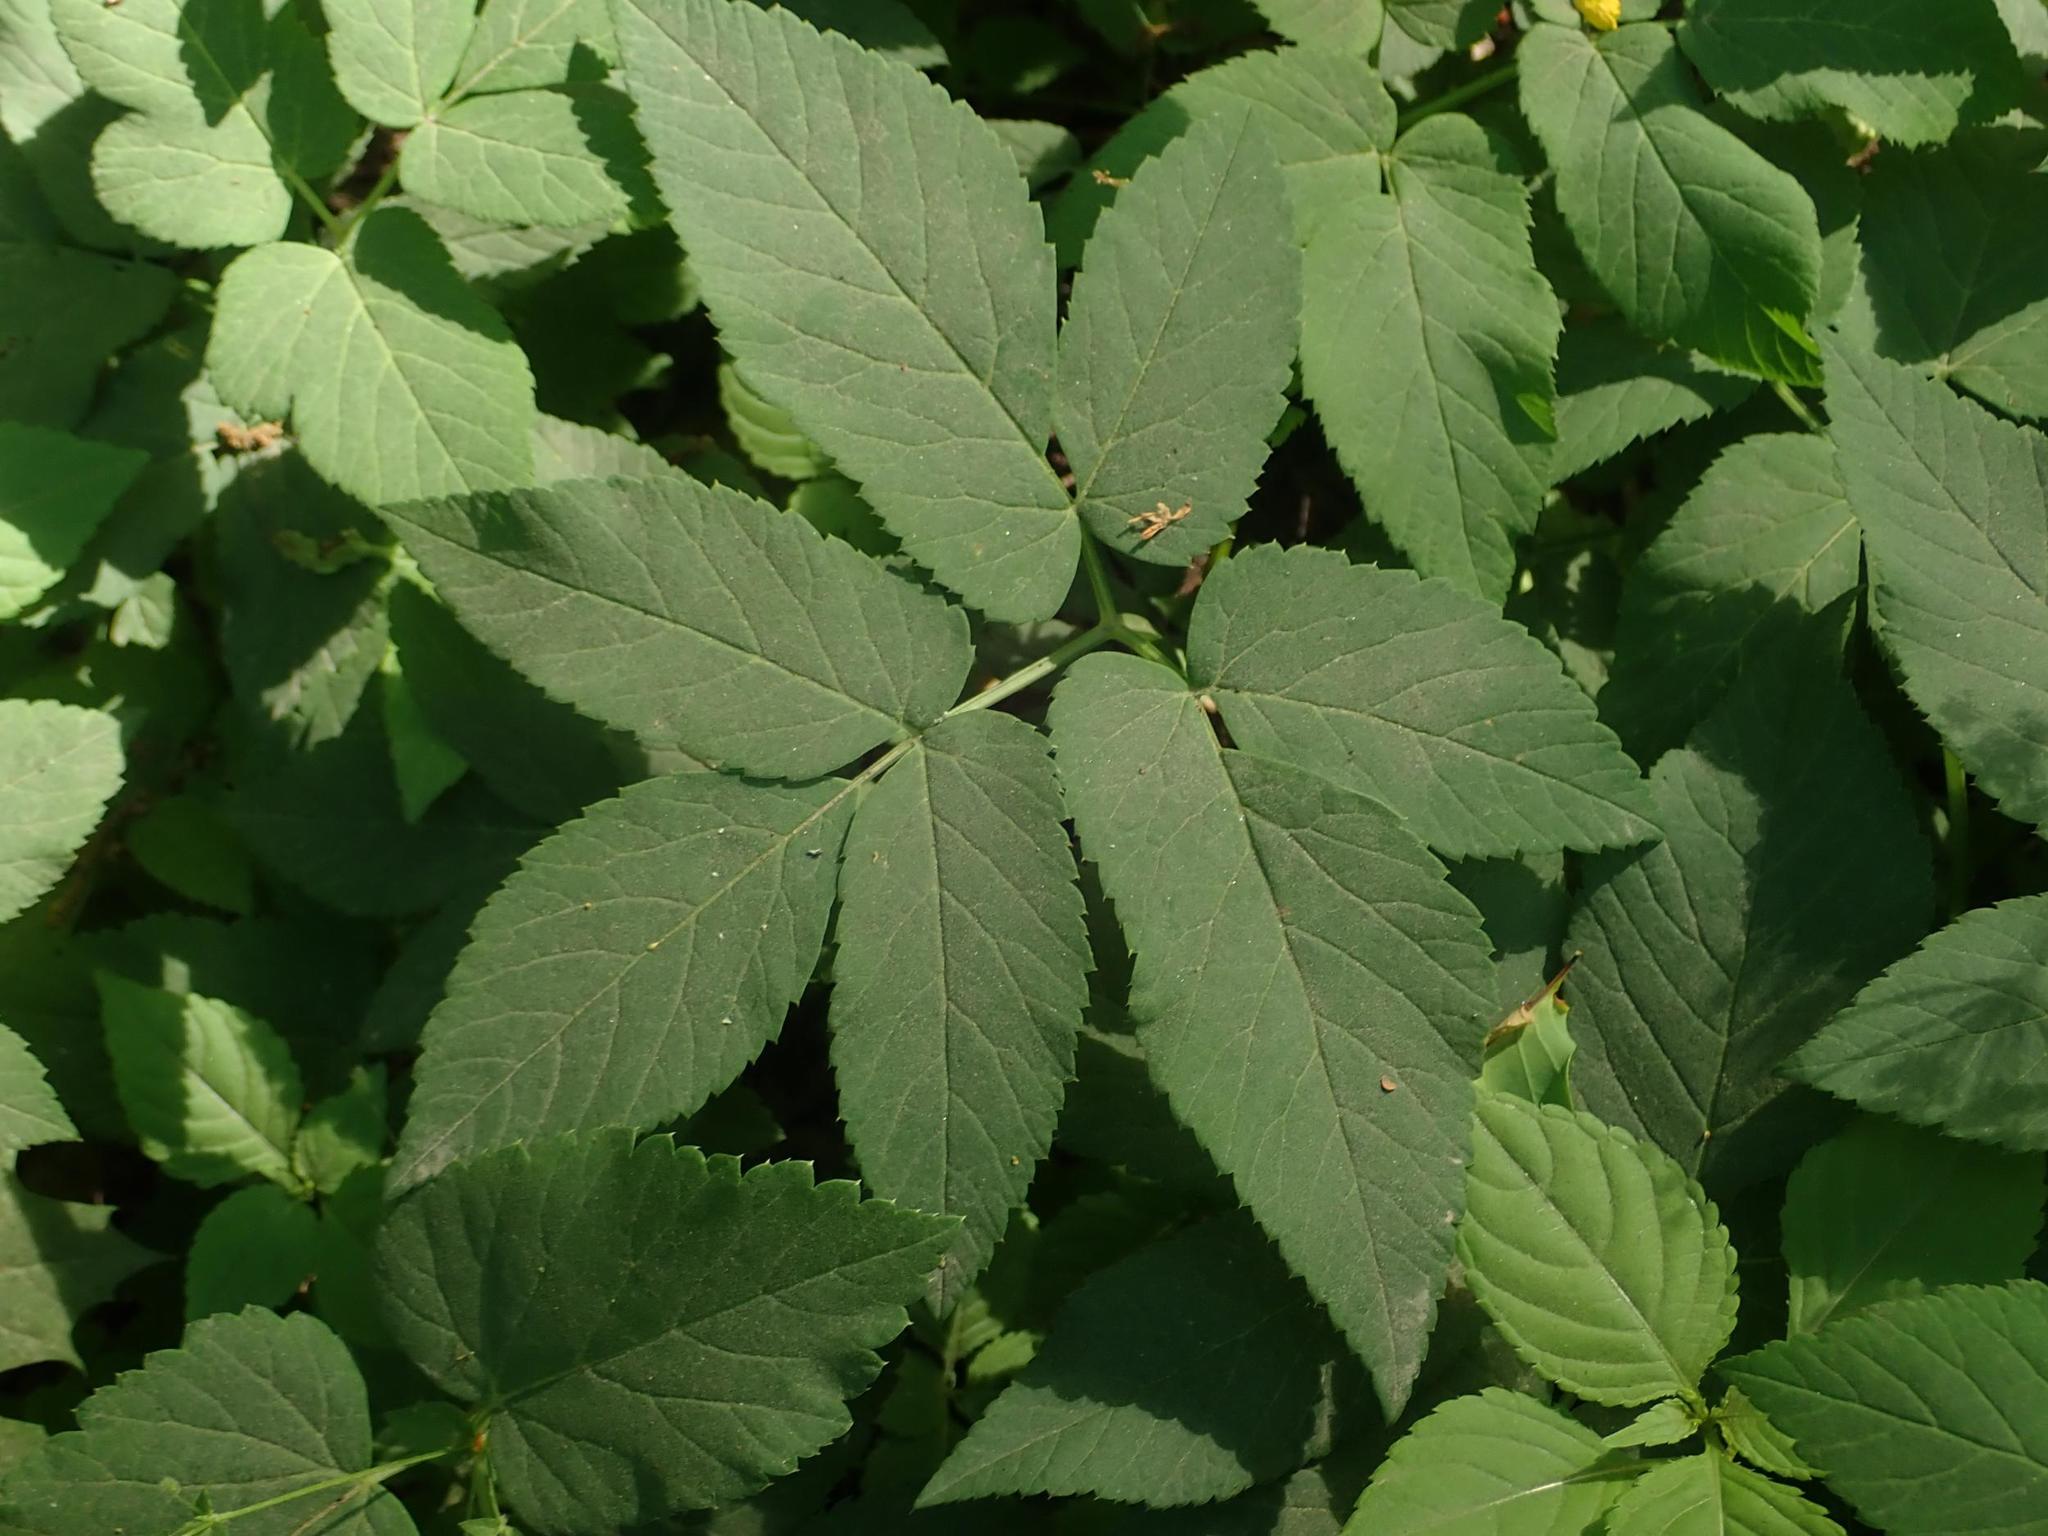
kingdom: Plantae
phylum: Tracheophyta
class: Magnoliopsida
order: Apiales
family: Apiaceae
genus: Aegopodium
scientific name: Aegopodium podagraria
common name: Ground-elder
